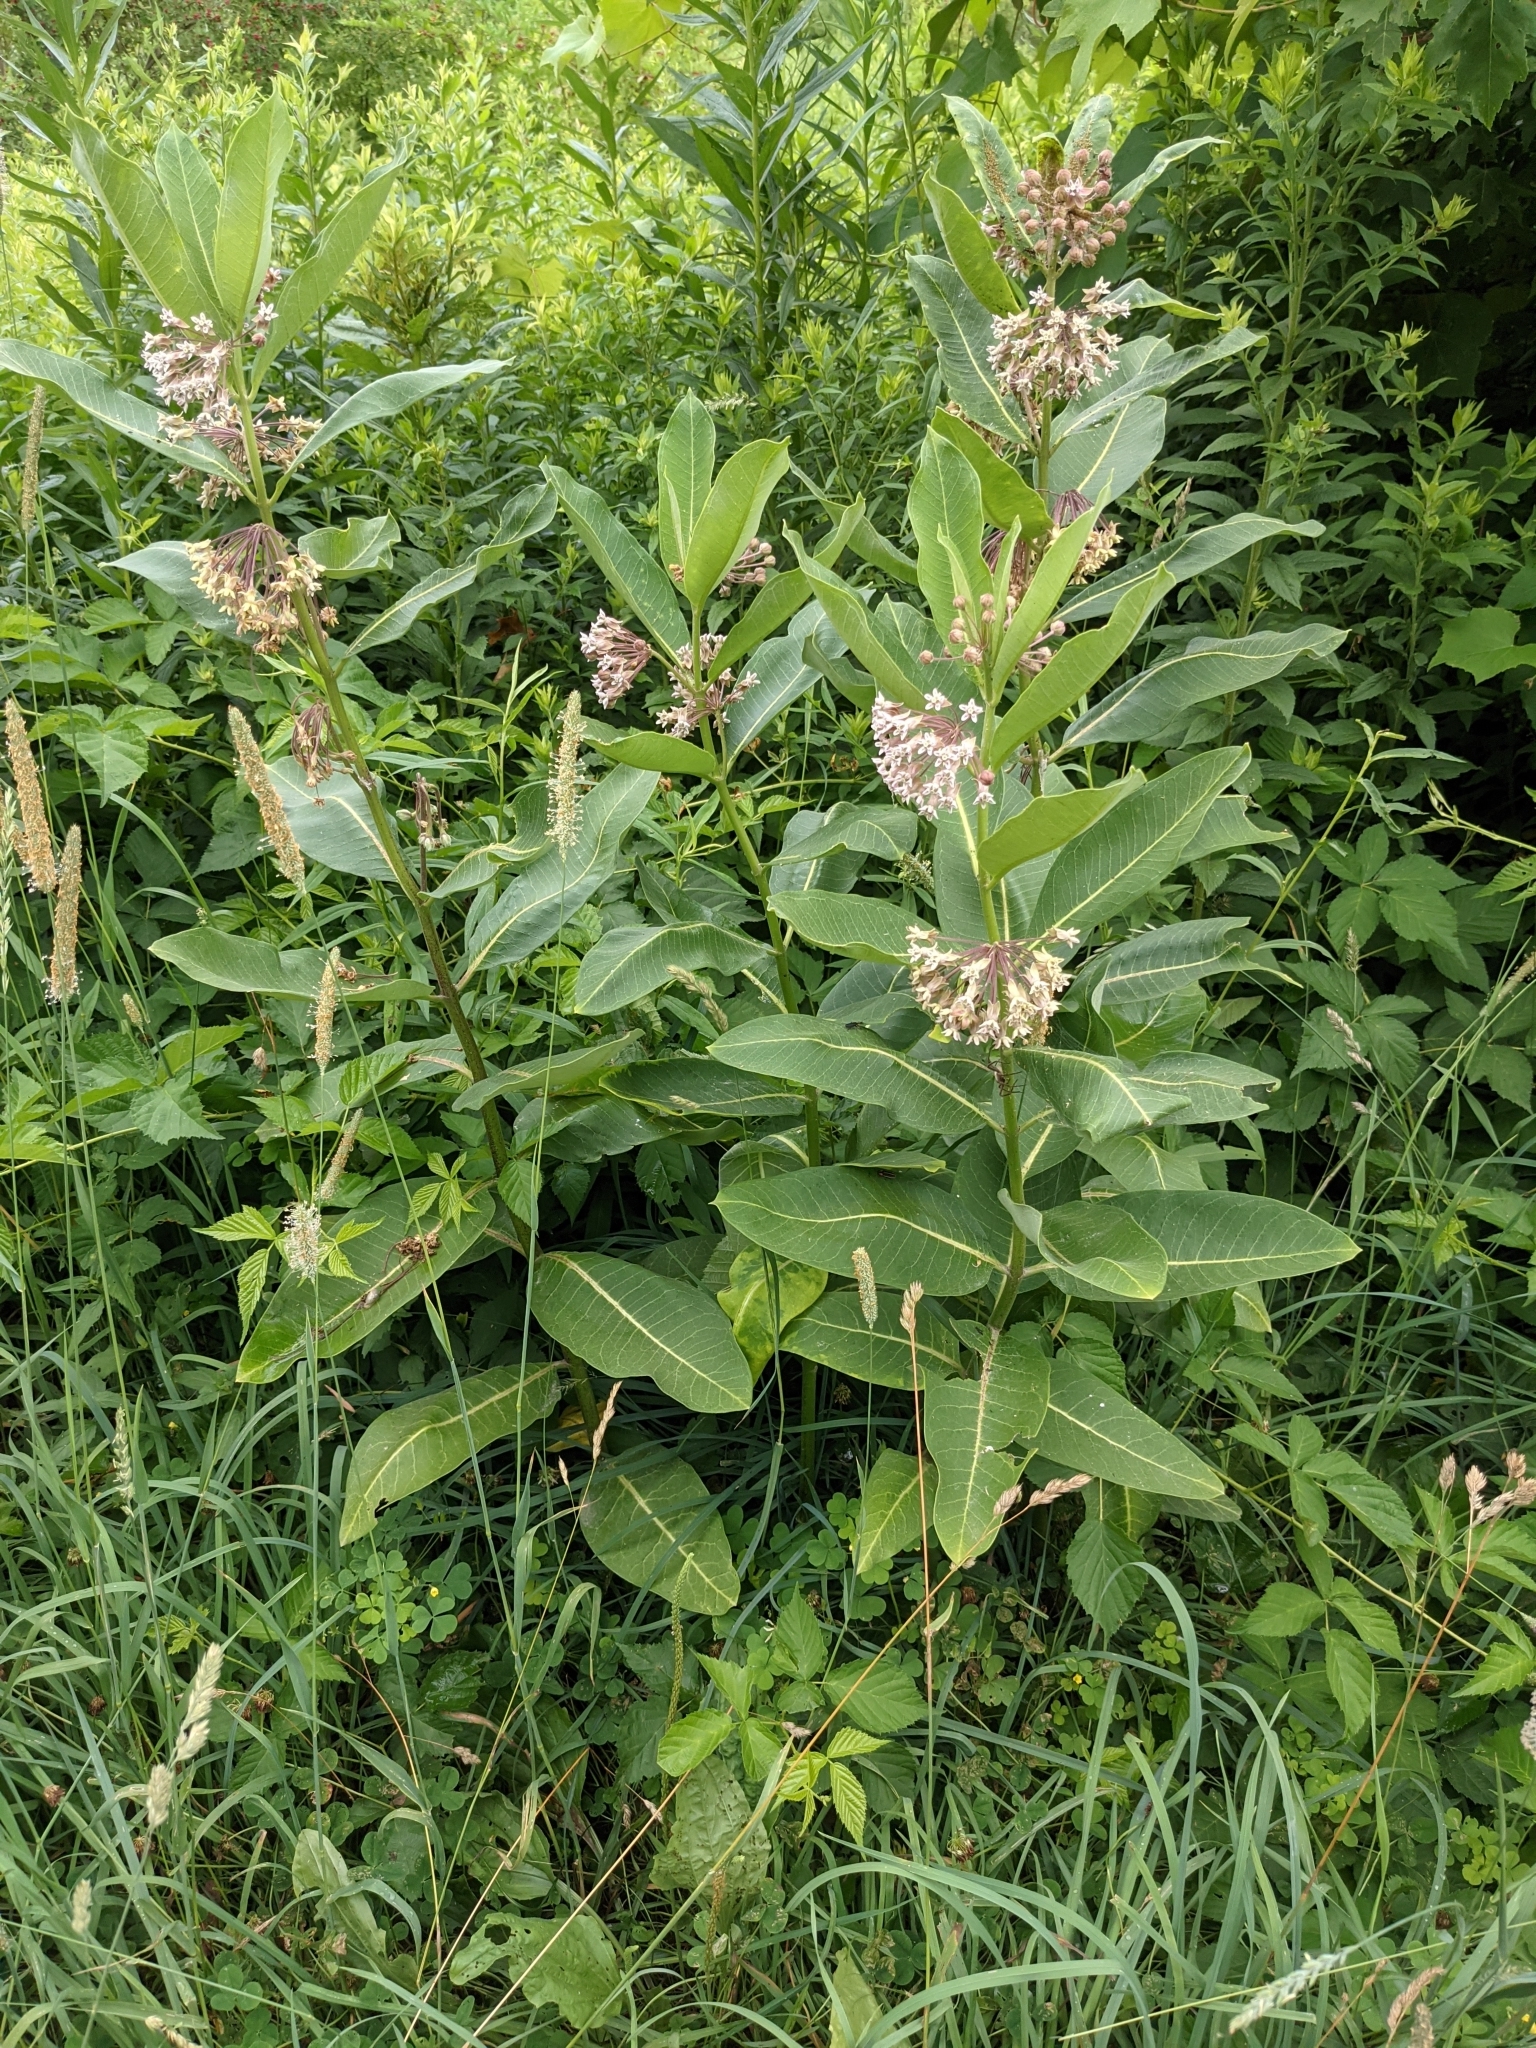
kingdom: Plantae
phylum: Tracheophyta
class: Magnoliopsida
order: Gentianales
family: Apocynaceae
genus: Asclepias
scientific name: Asclepias syriaca
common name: Common milkweed
